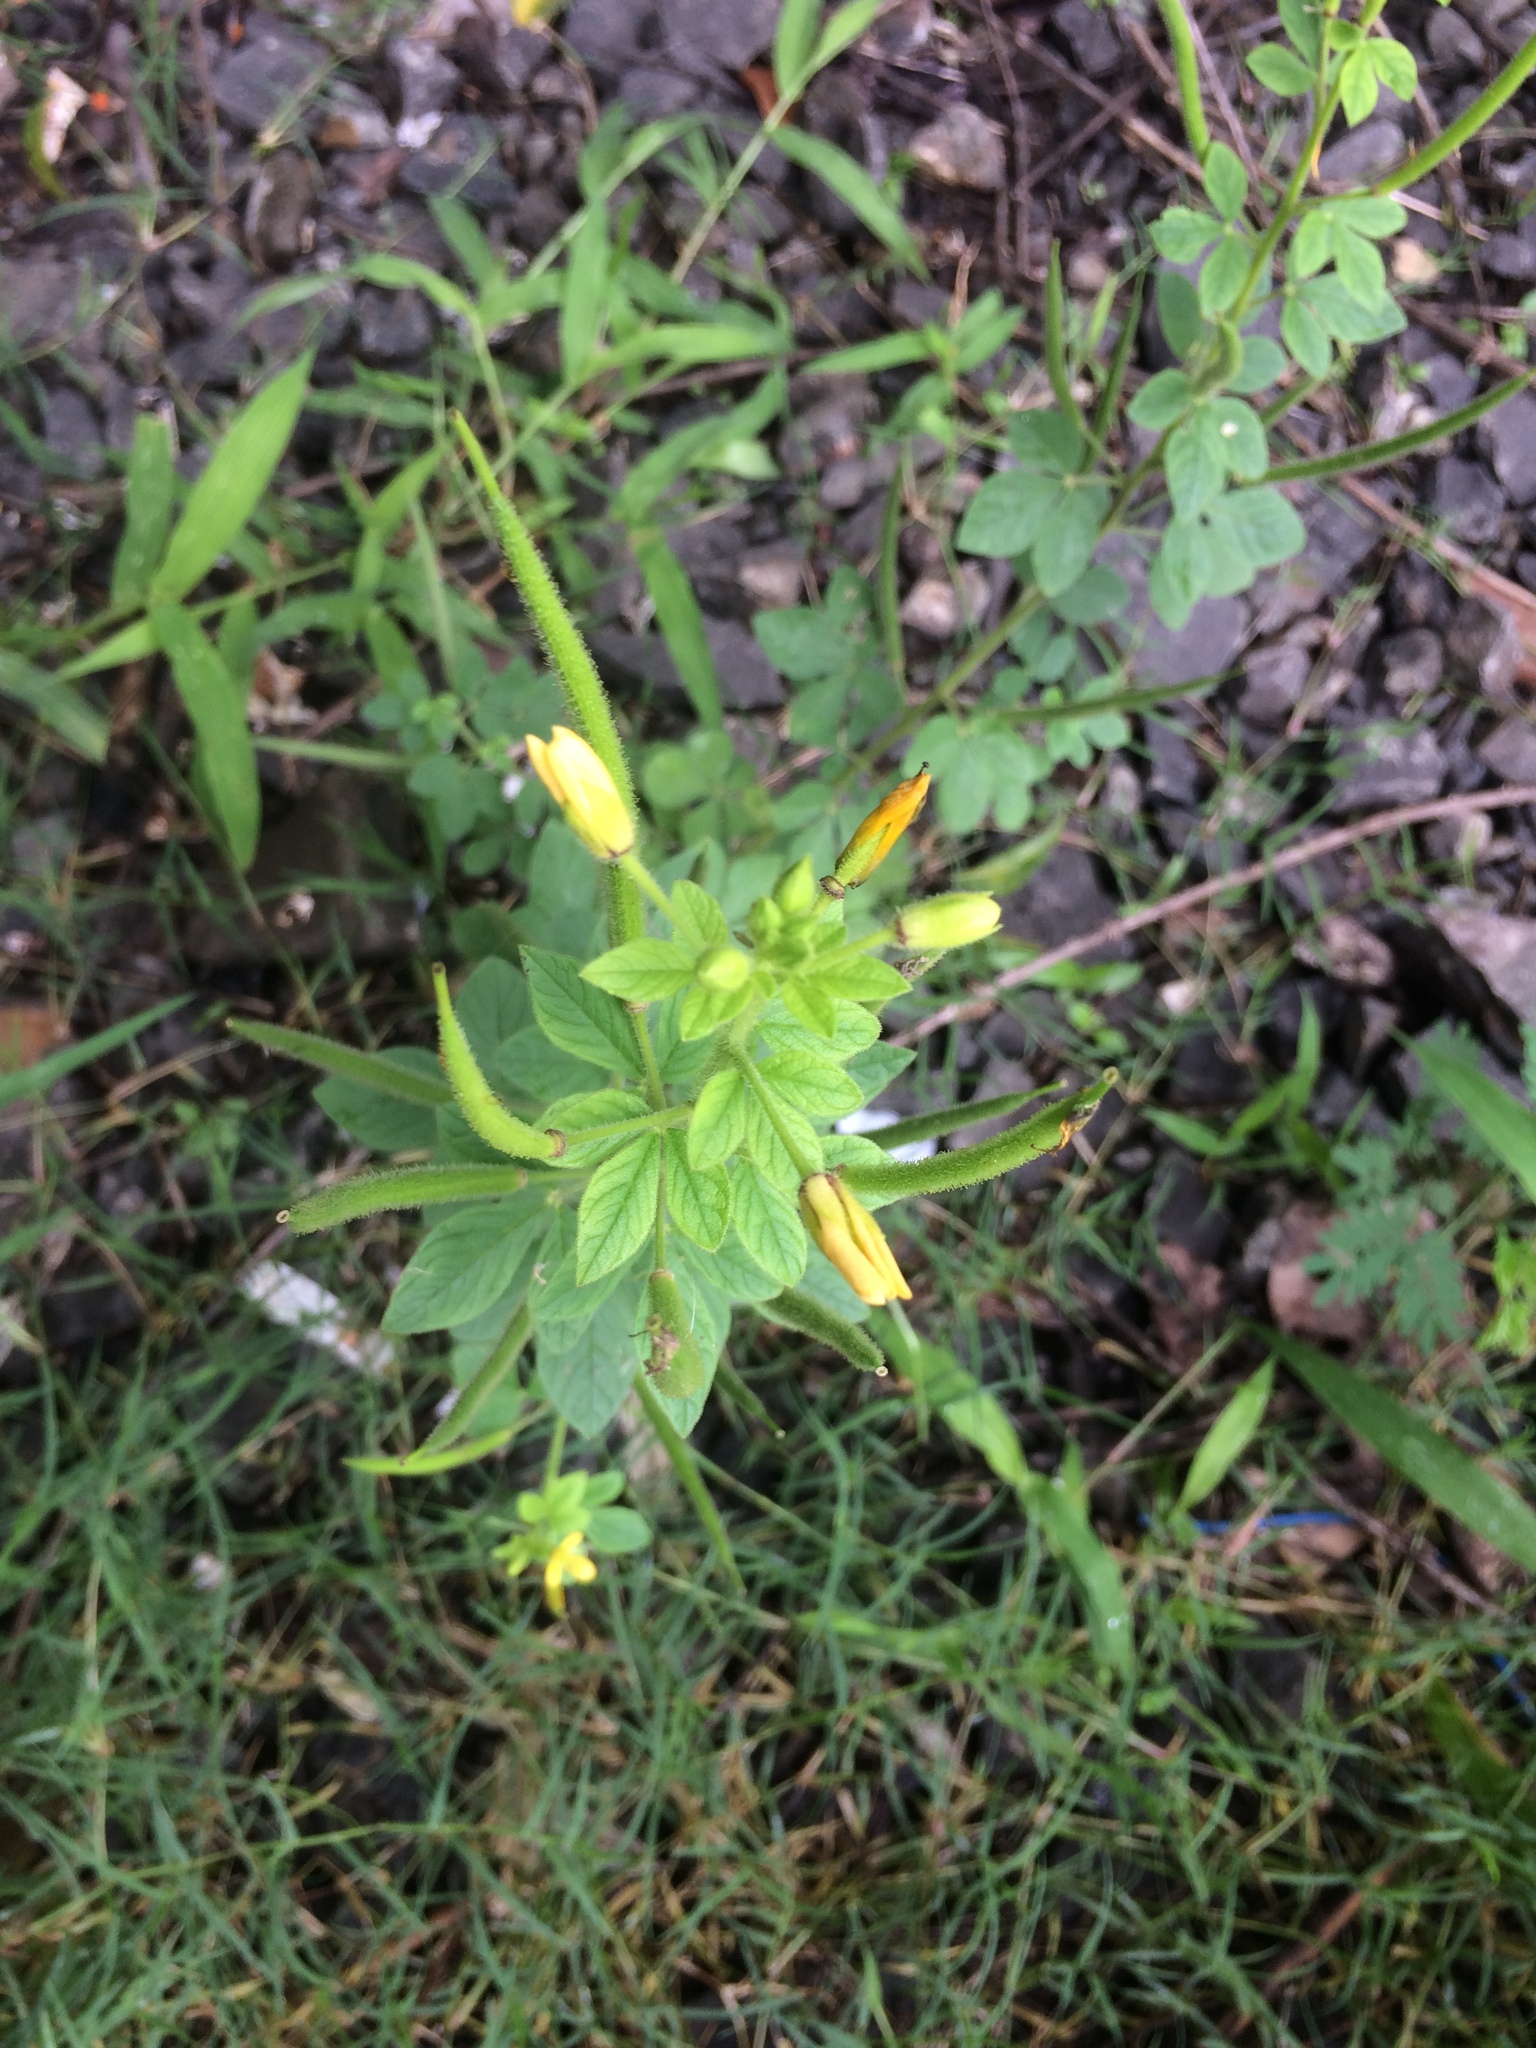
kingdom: Plantae
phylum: Tracheophyta
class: Magnoliopsida
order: Brassicales
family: Cleomaceae
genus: Arivela
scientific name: Arivela viscosa
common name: Asian spiderflower
